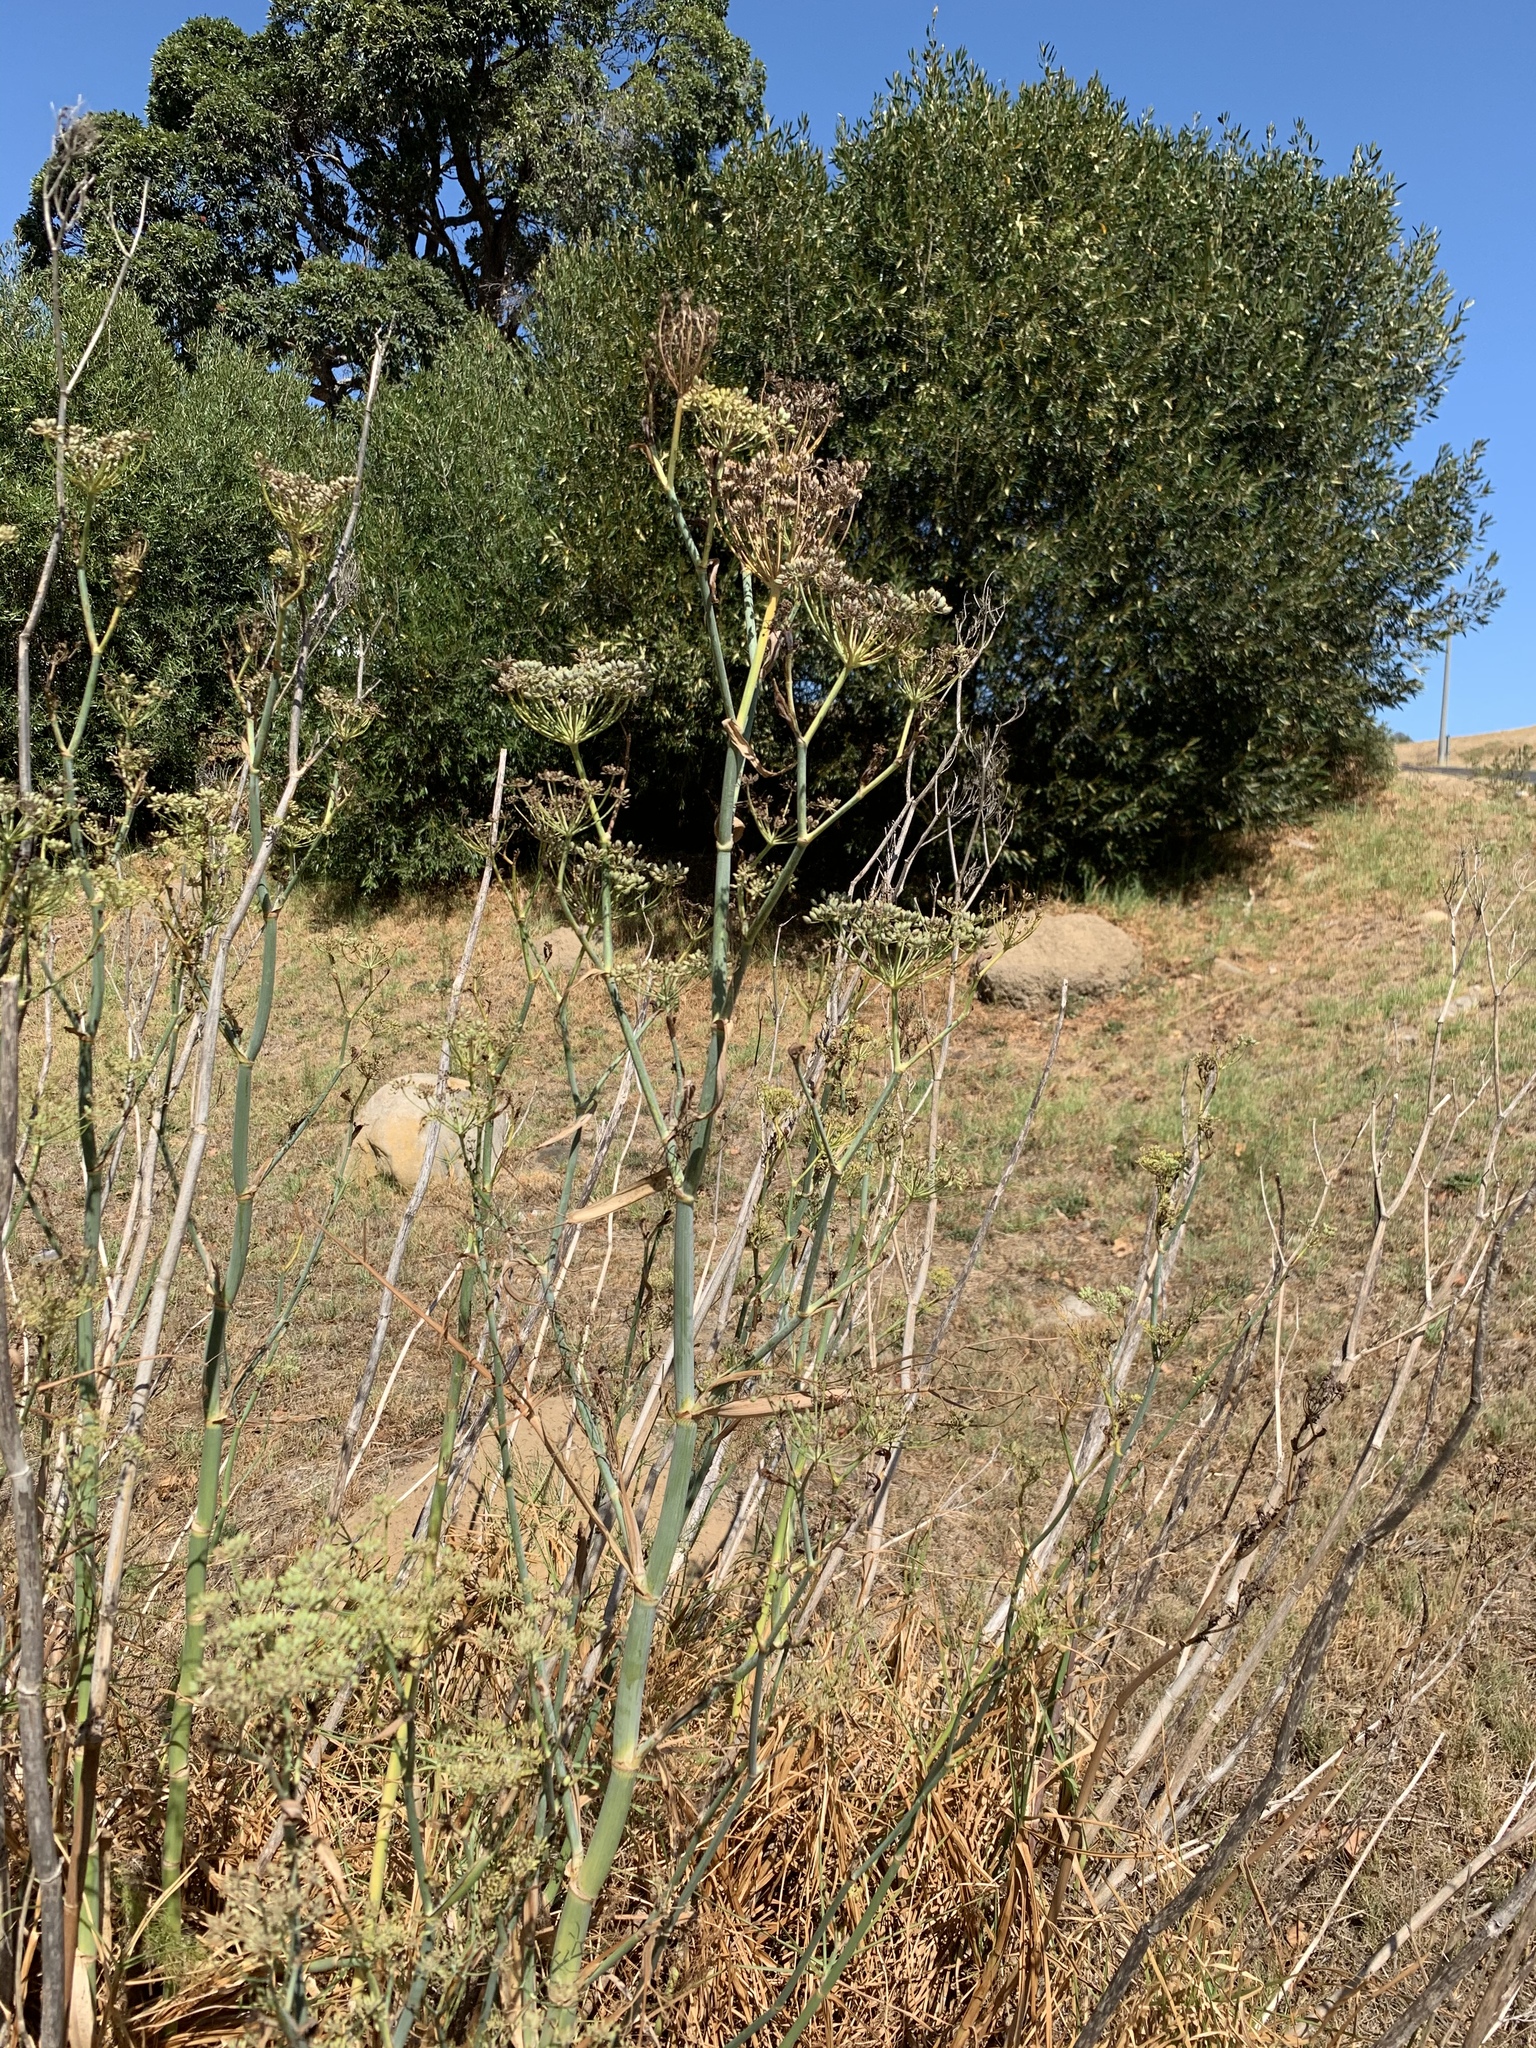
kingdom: Plantae
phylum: Tracheophyta
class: Magnoliopsida
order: Apiales
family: Apiaceae
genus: Foeniculum
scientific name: Foeniculum vulgare
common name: Fennel
